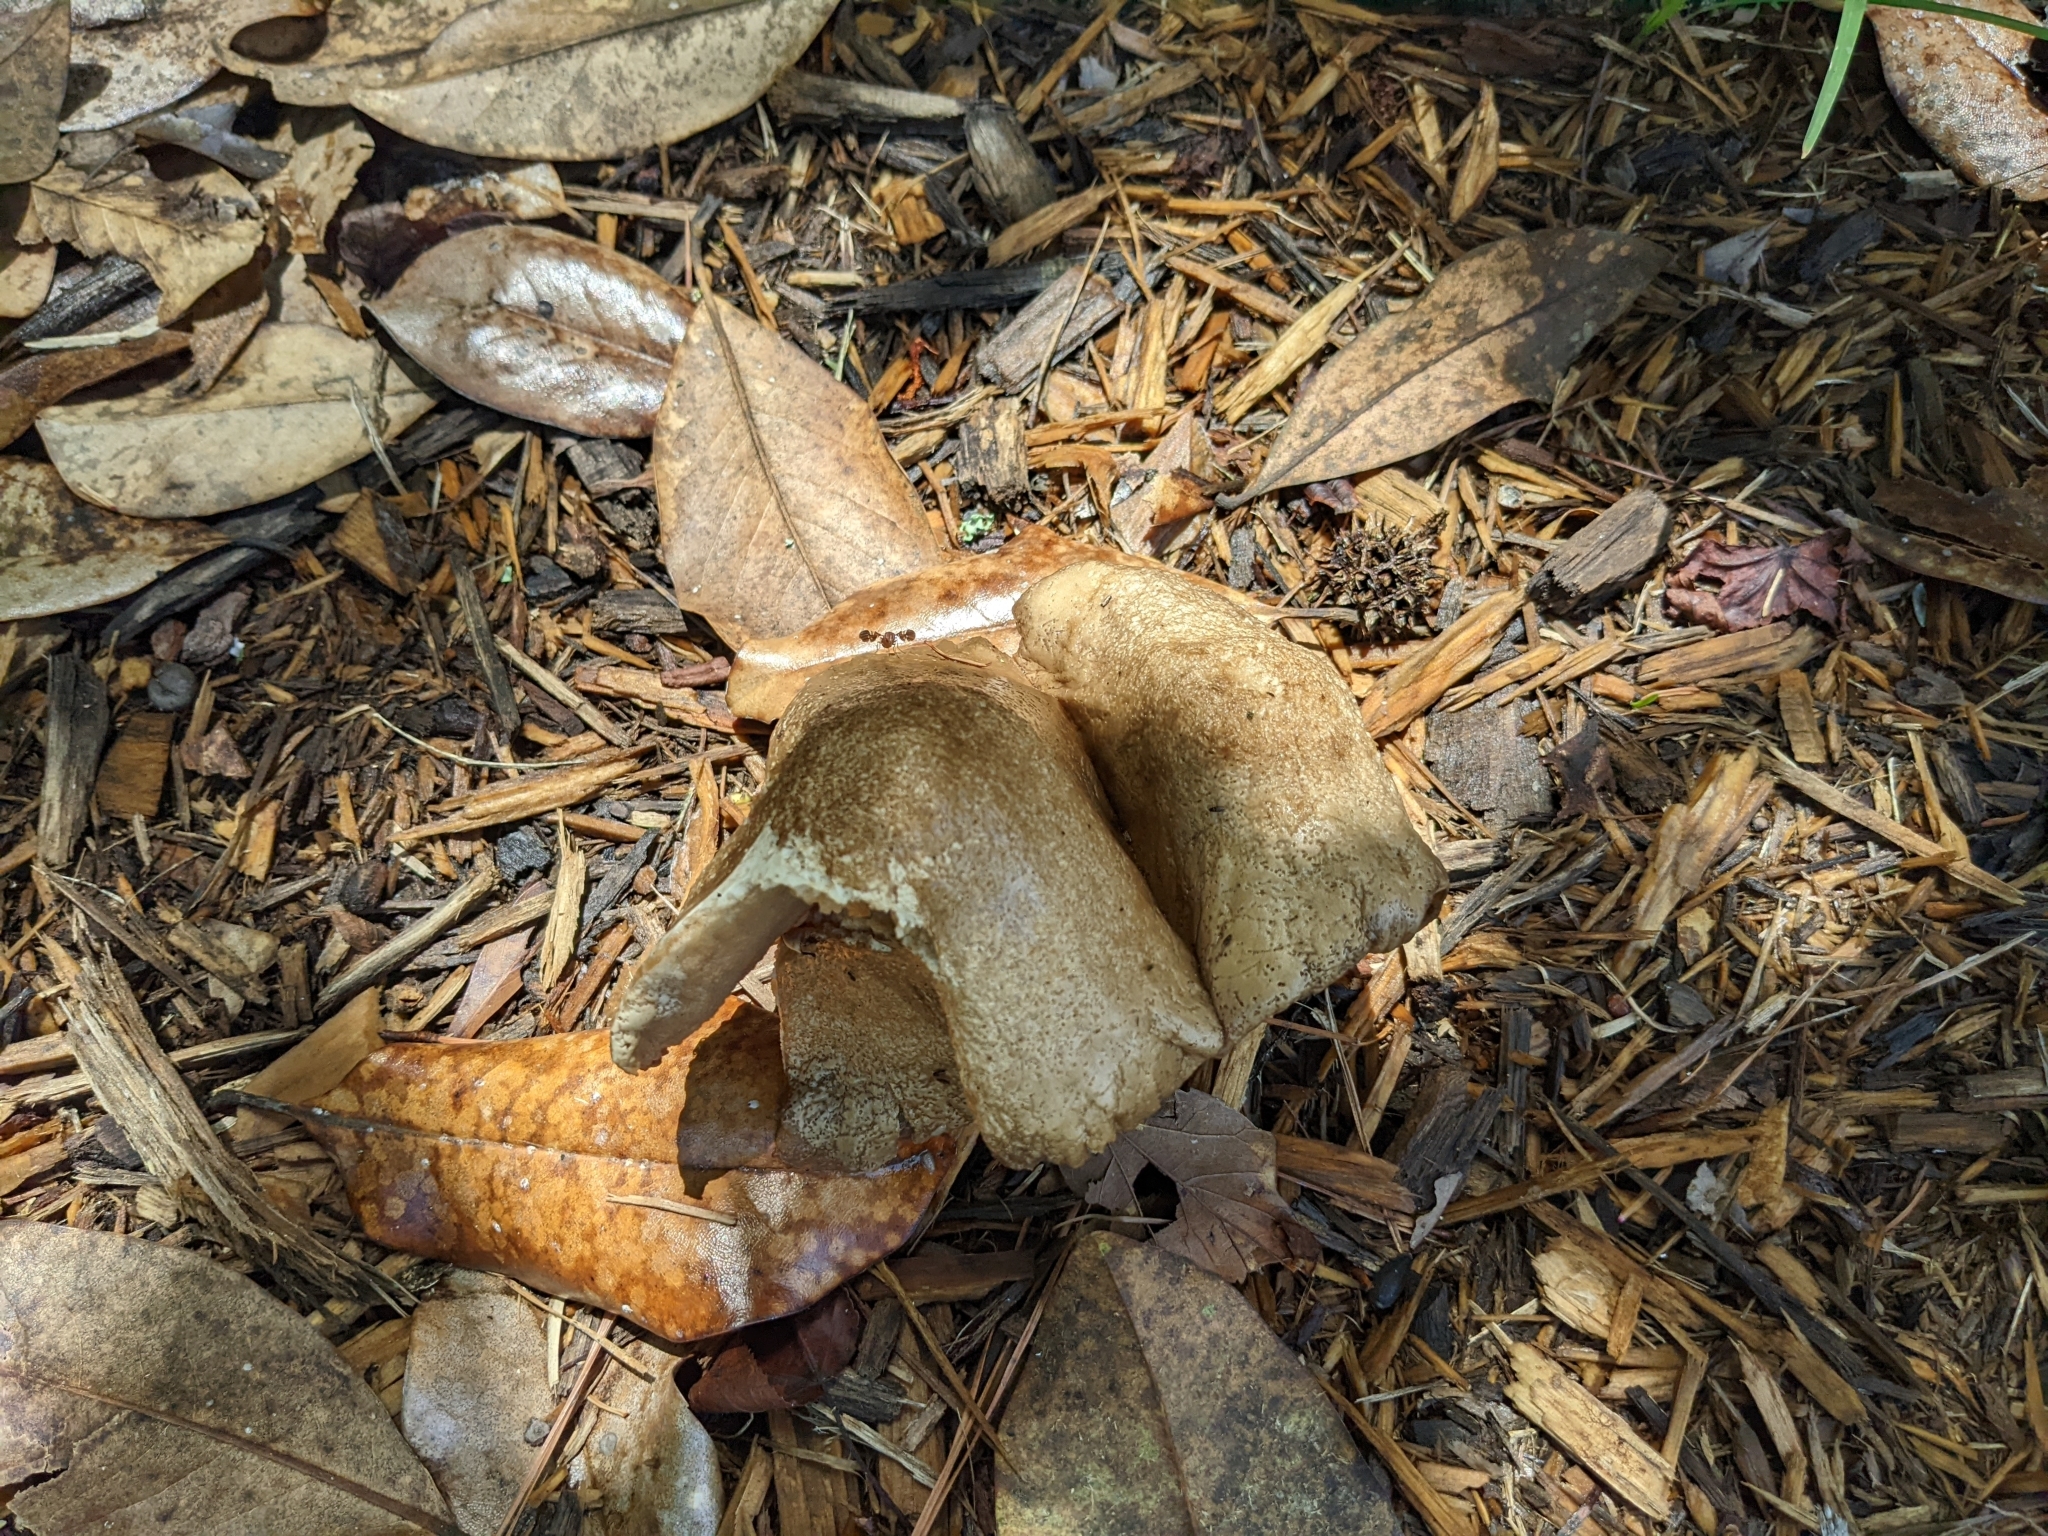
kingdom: Fungi
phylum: Basidiomycota
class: Agaricomycetes
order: Agaricales
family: Pluteaceae
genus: Pluteus
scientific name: Pluteus petasatus
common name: Scaly shield
